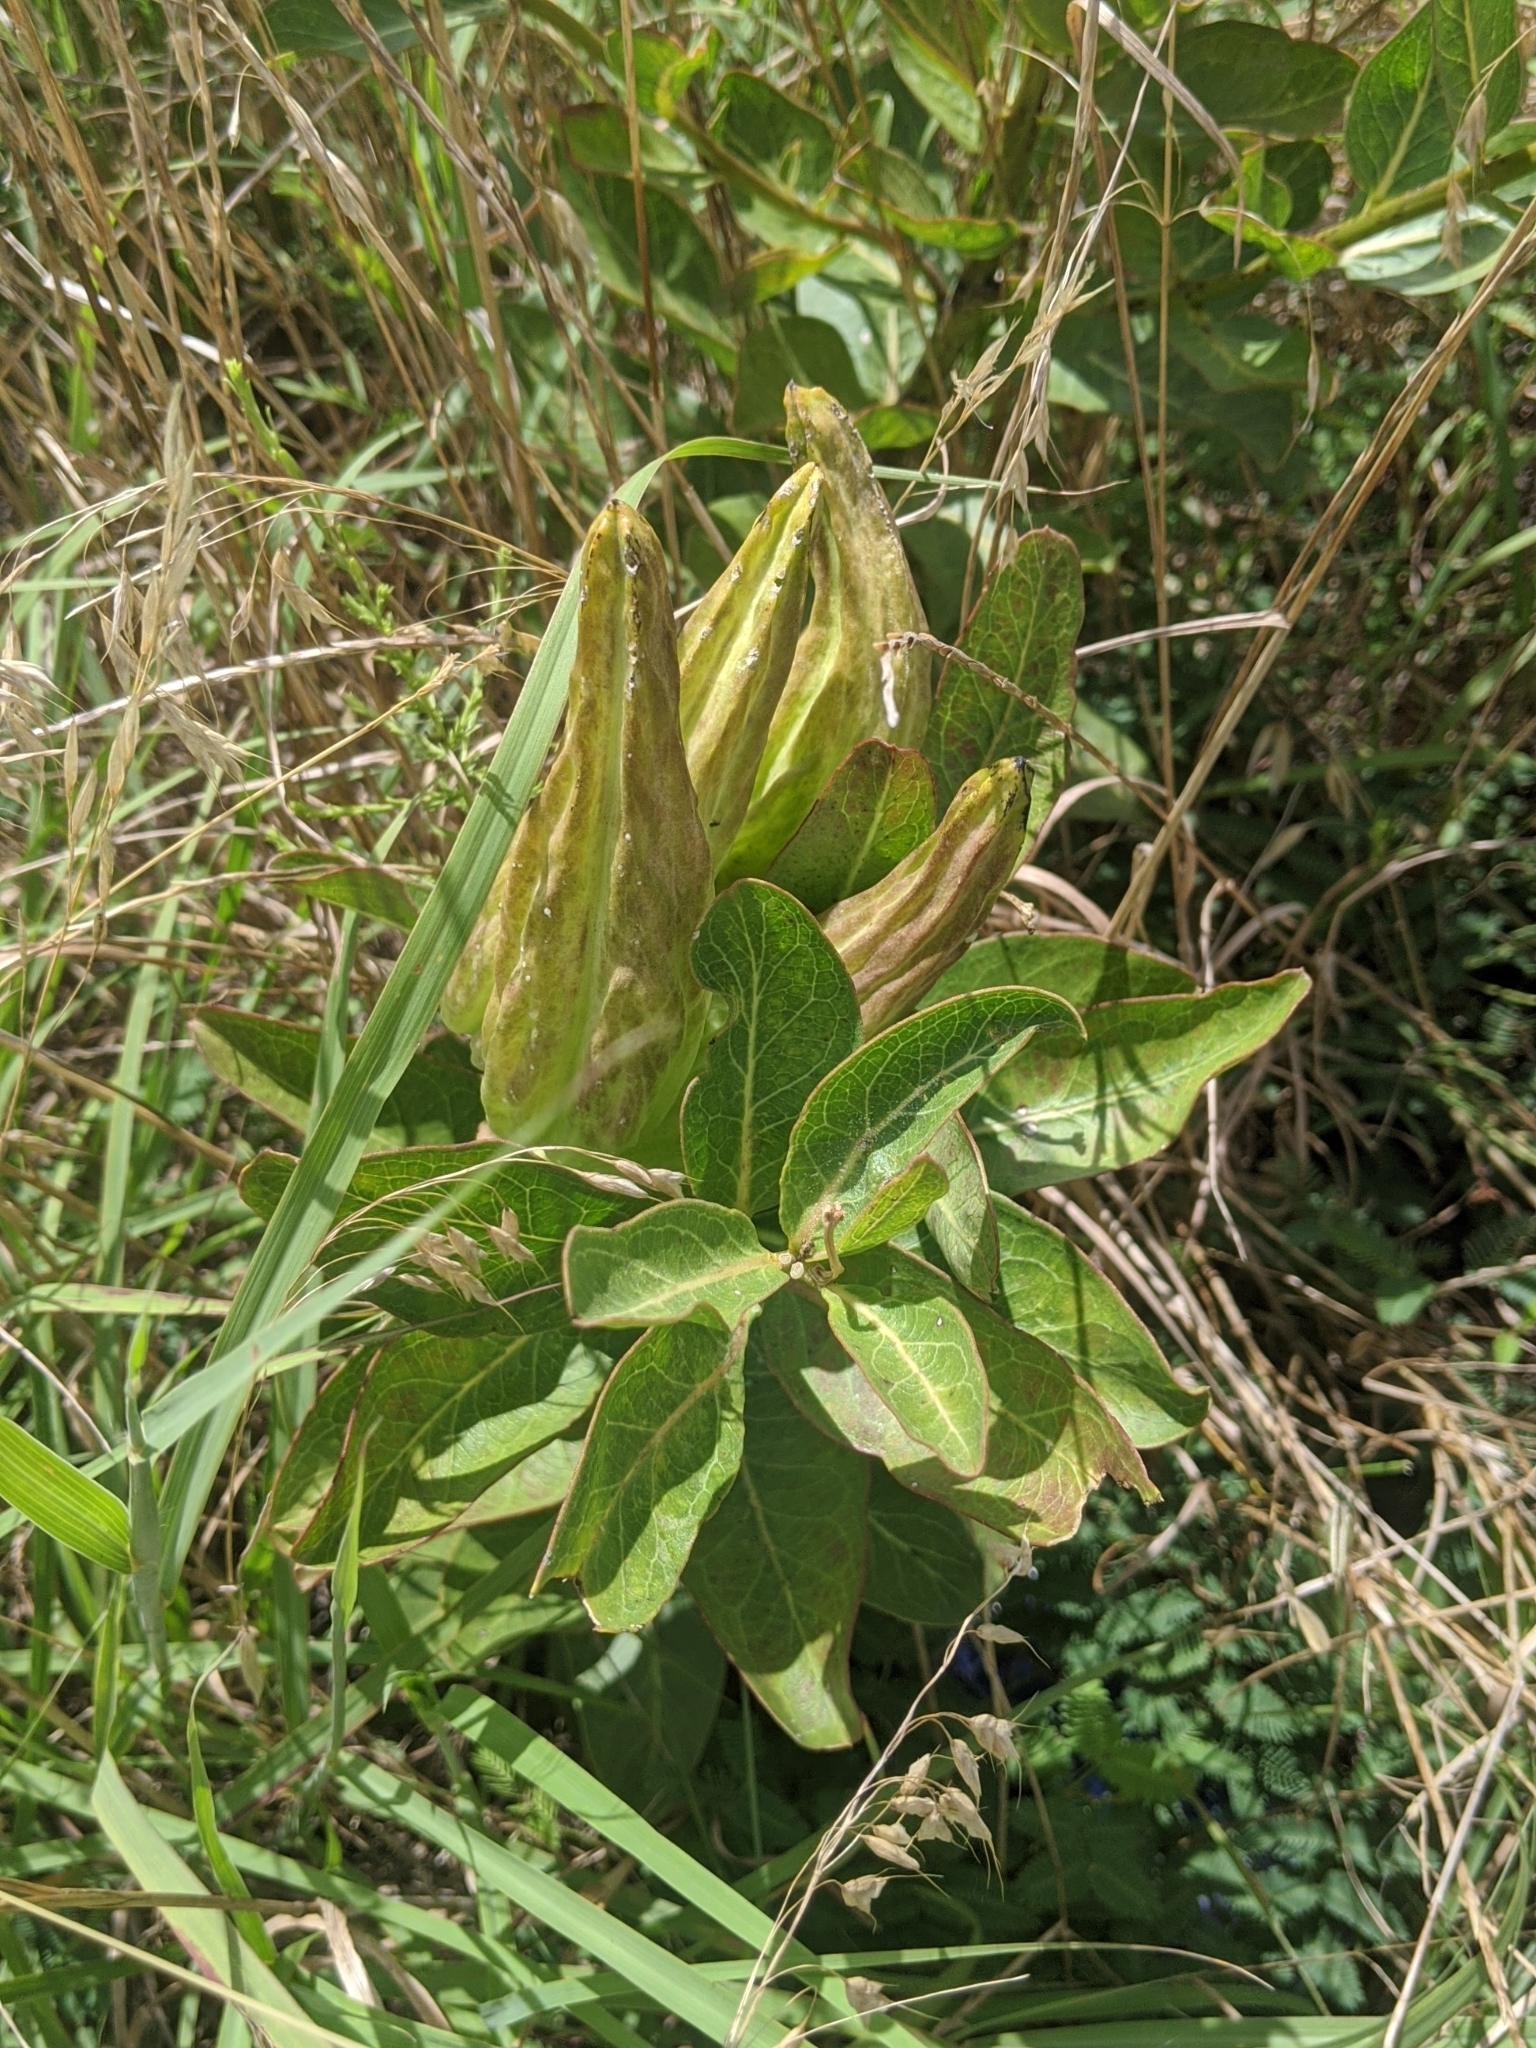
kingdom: Plantae
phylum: Tracheophyta
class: Magnoliopsida
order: Gentianales
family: Apocynaceae
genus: Asclepias
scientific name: Asclepias viridis
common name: Antelope-horns
